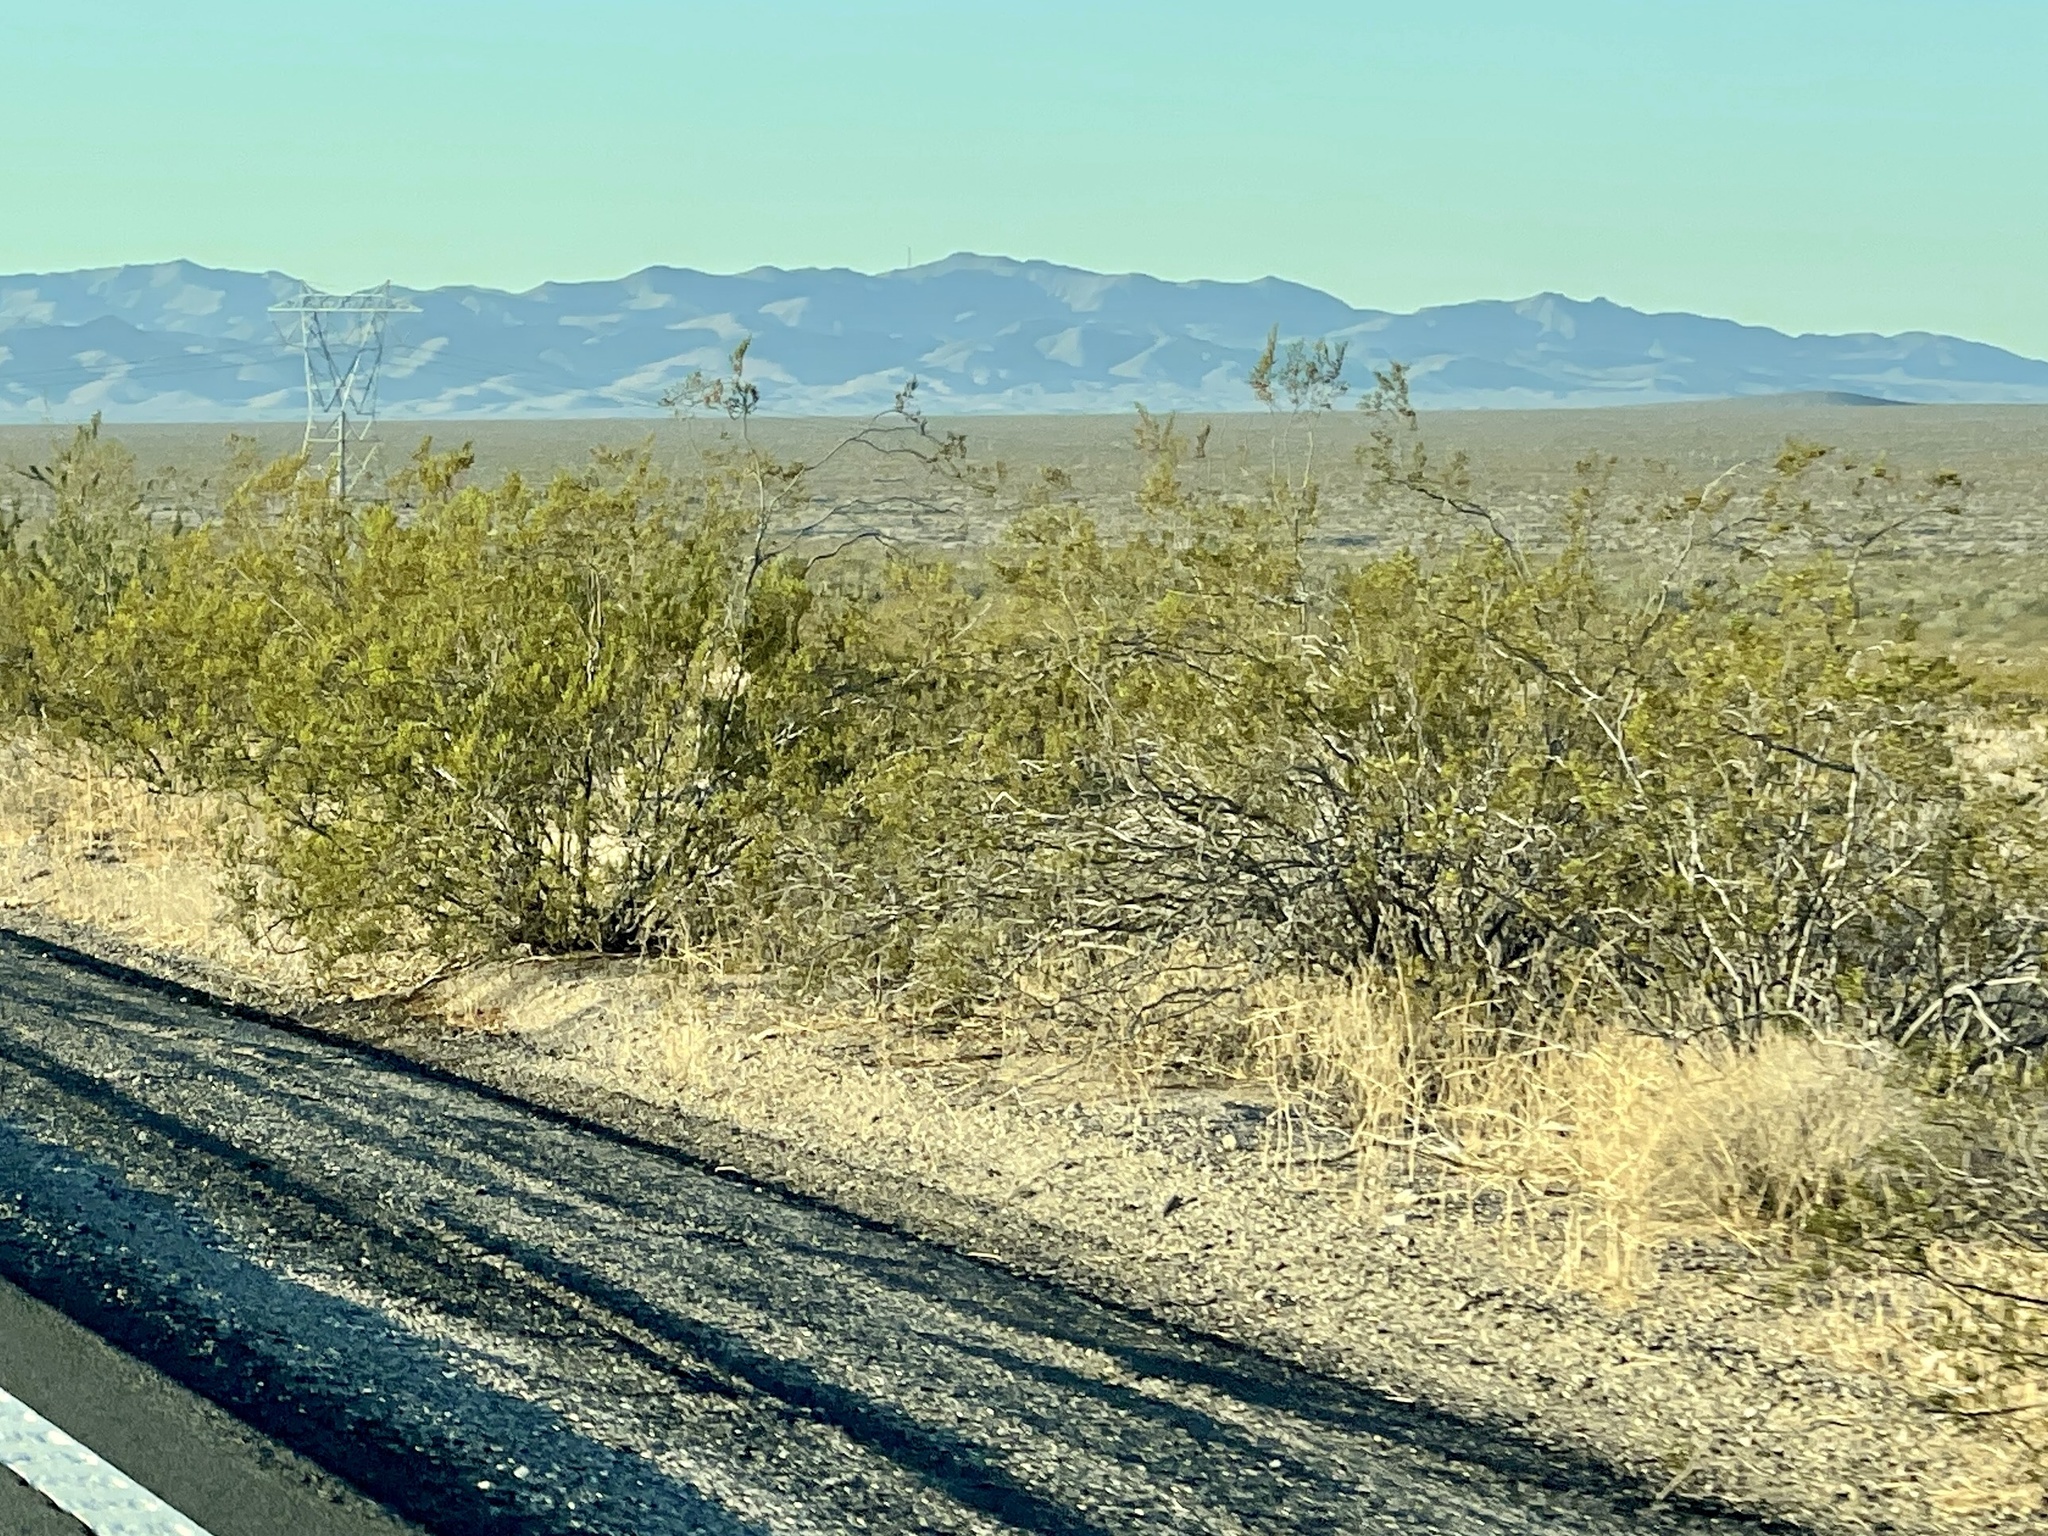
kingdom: Plantae
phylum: Tracheophyta
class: Magnoliopsida
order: Zygophyllales
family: Zygophyllaceae
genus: Larrea
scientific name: Larrea tridentata
